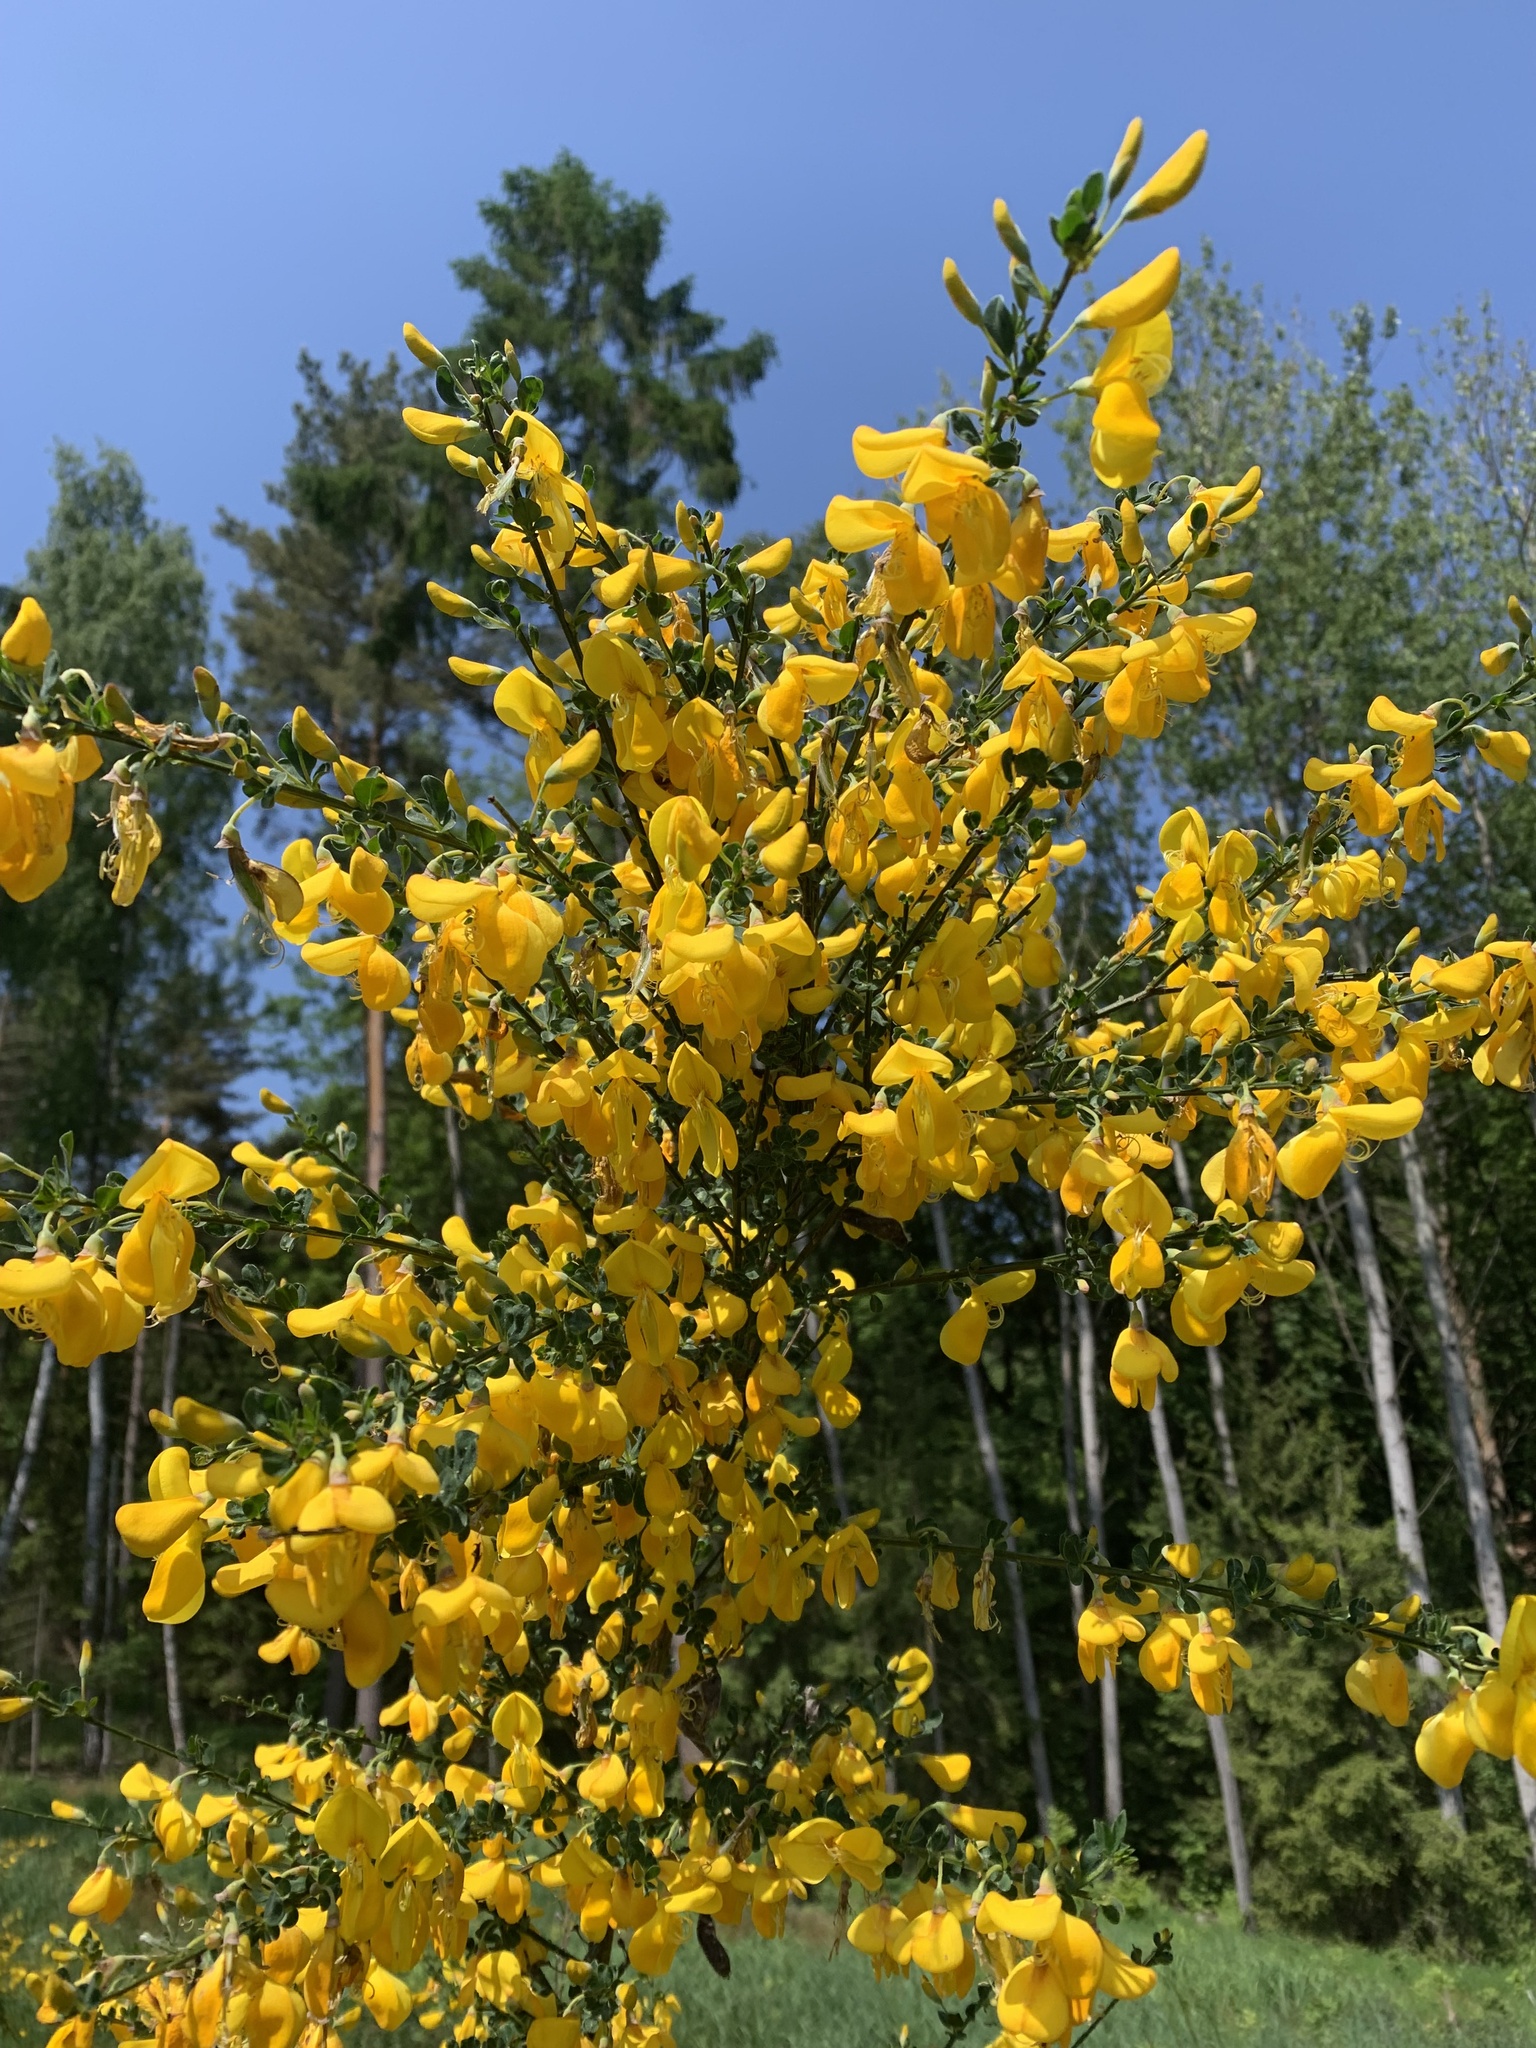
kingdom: Plantae
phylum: Tracheophyta
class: Magnoliopsida
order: Fabales
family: Fabaceae
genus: Cytisus
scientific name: Cytisus scoparius
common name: Scotch broom
